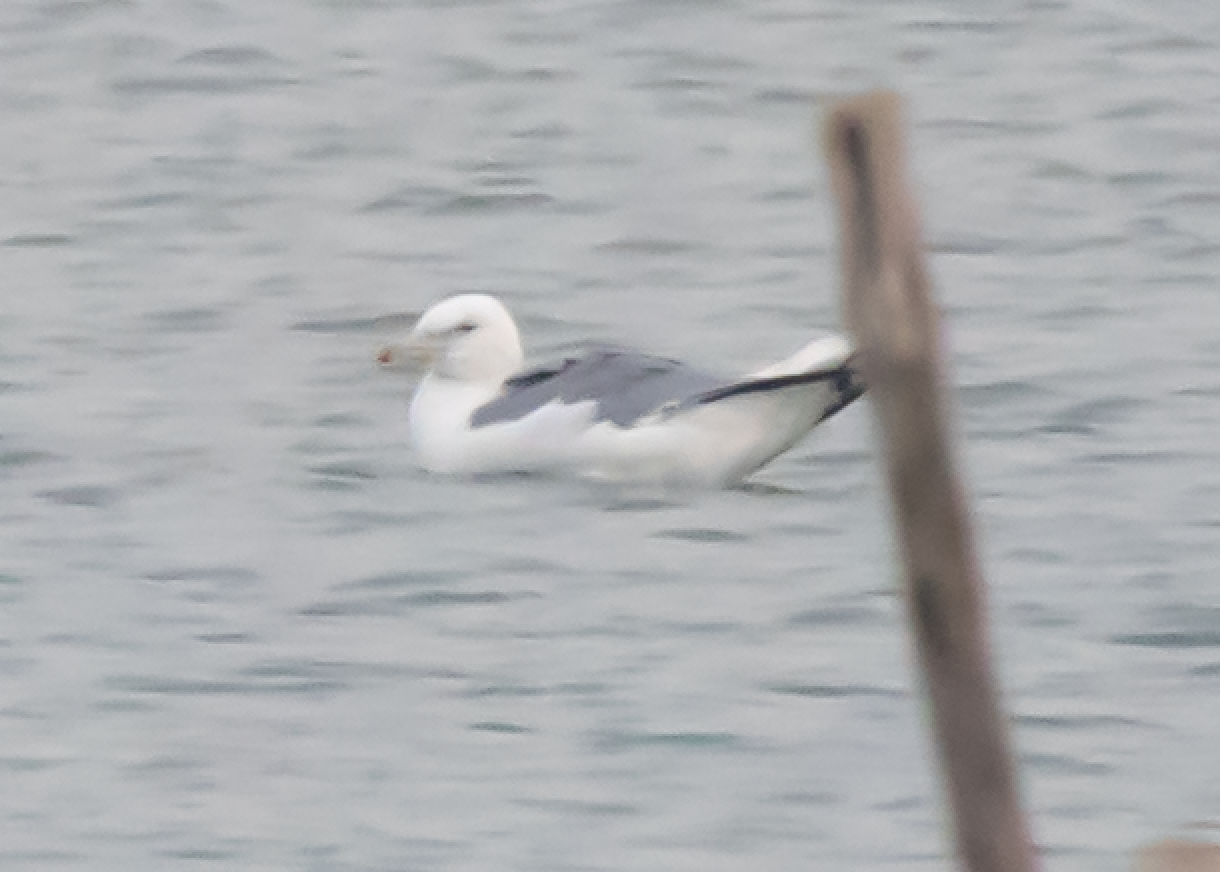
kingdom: Animalia
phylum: Chordata
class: Aves
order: Charadriiformes
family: Laridae
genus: Larus
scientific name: Larus cachinnans
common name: Caspian gull
